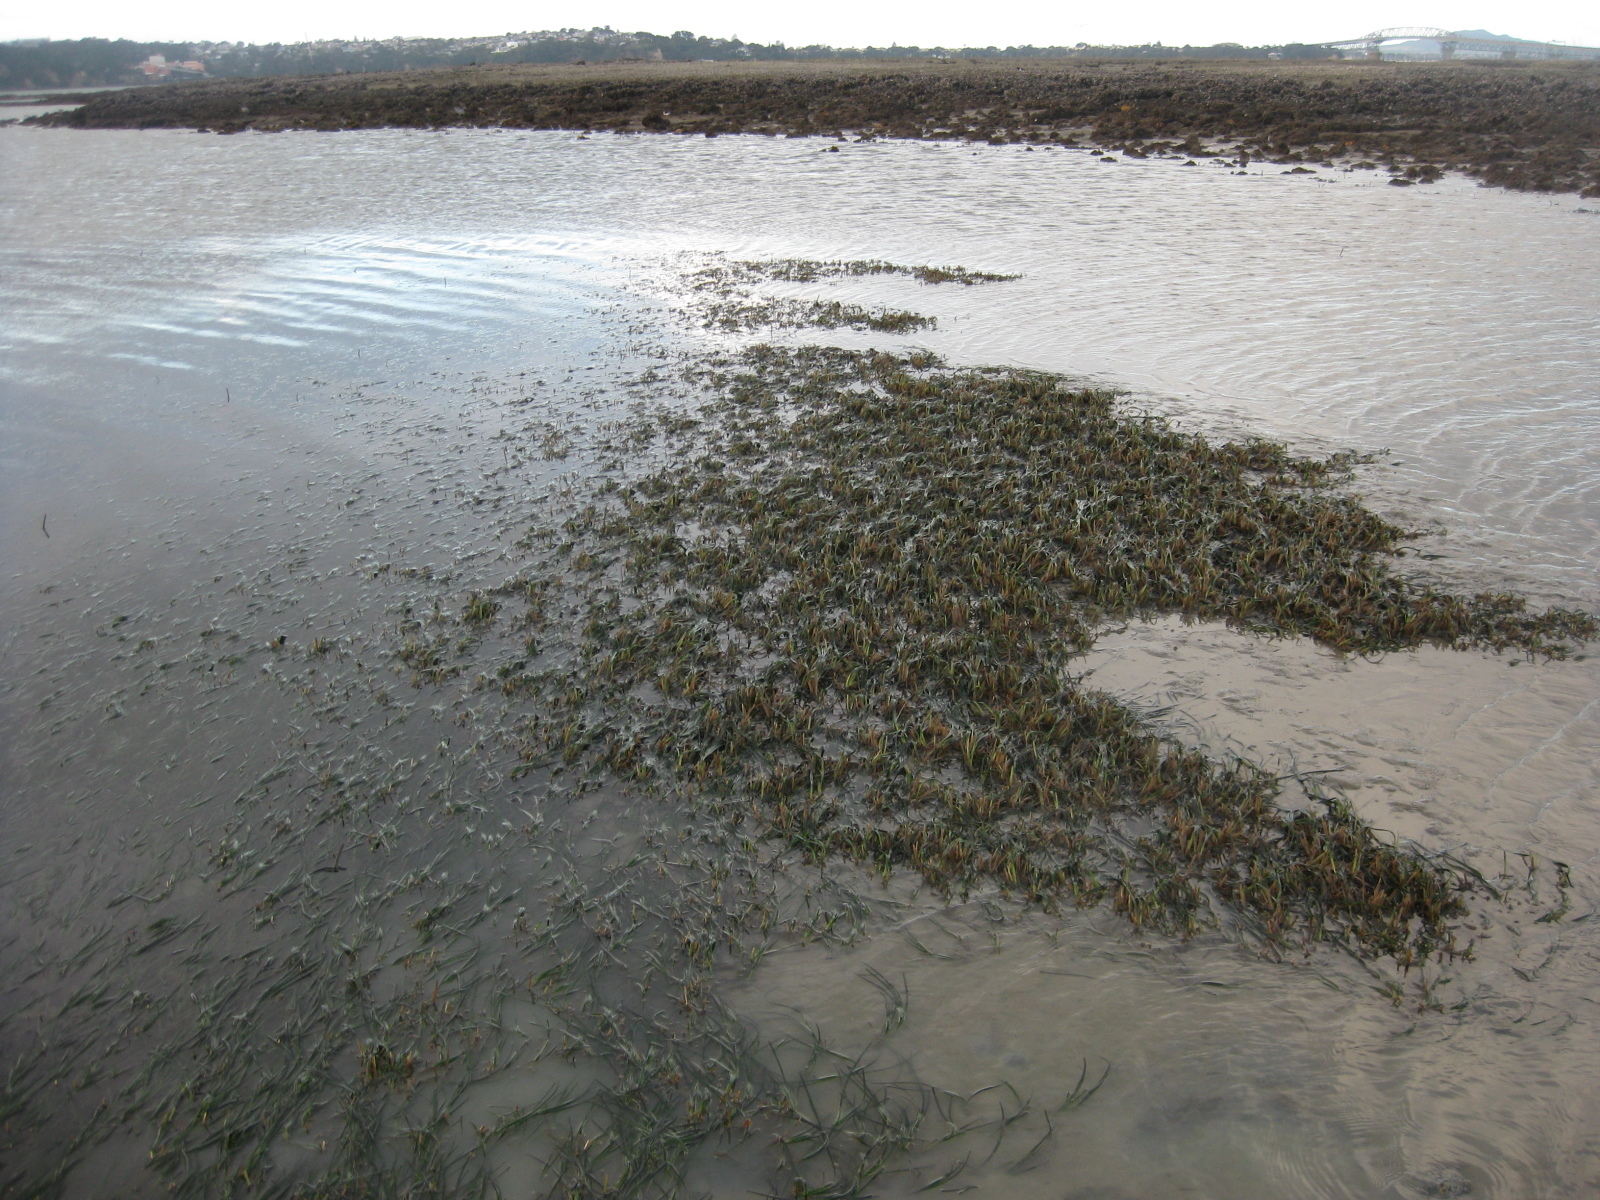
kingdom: Plantae
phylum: Tracheophyta
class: Liliopsida
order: Alismatales
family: Zosteraceae
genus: Zostera
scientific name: Zostera novazelandica
